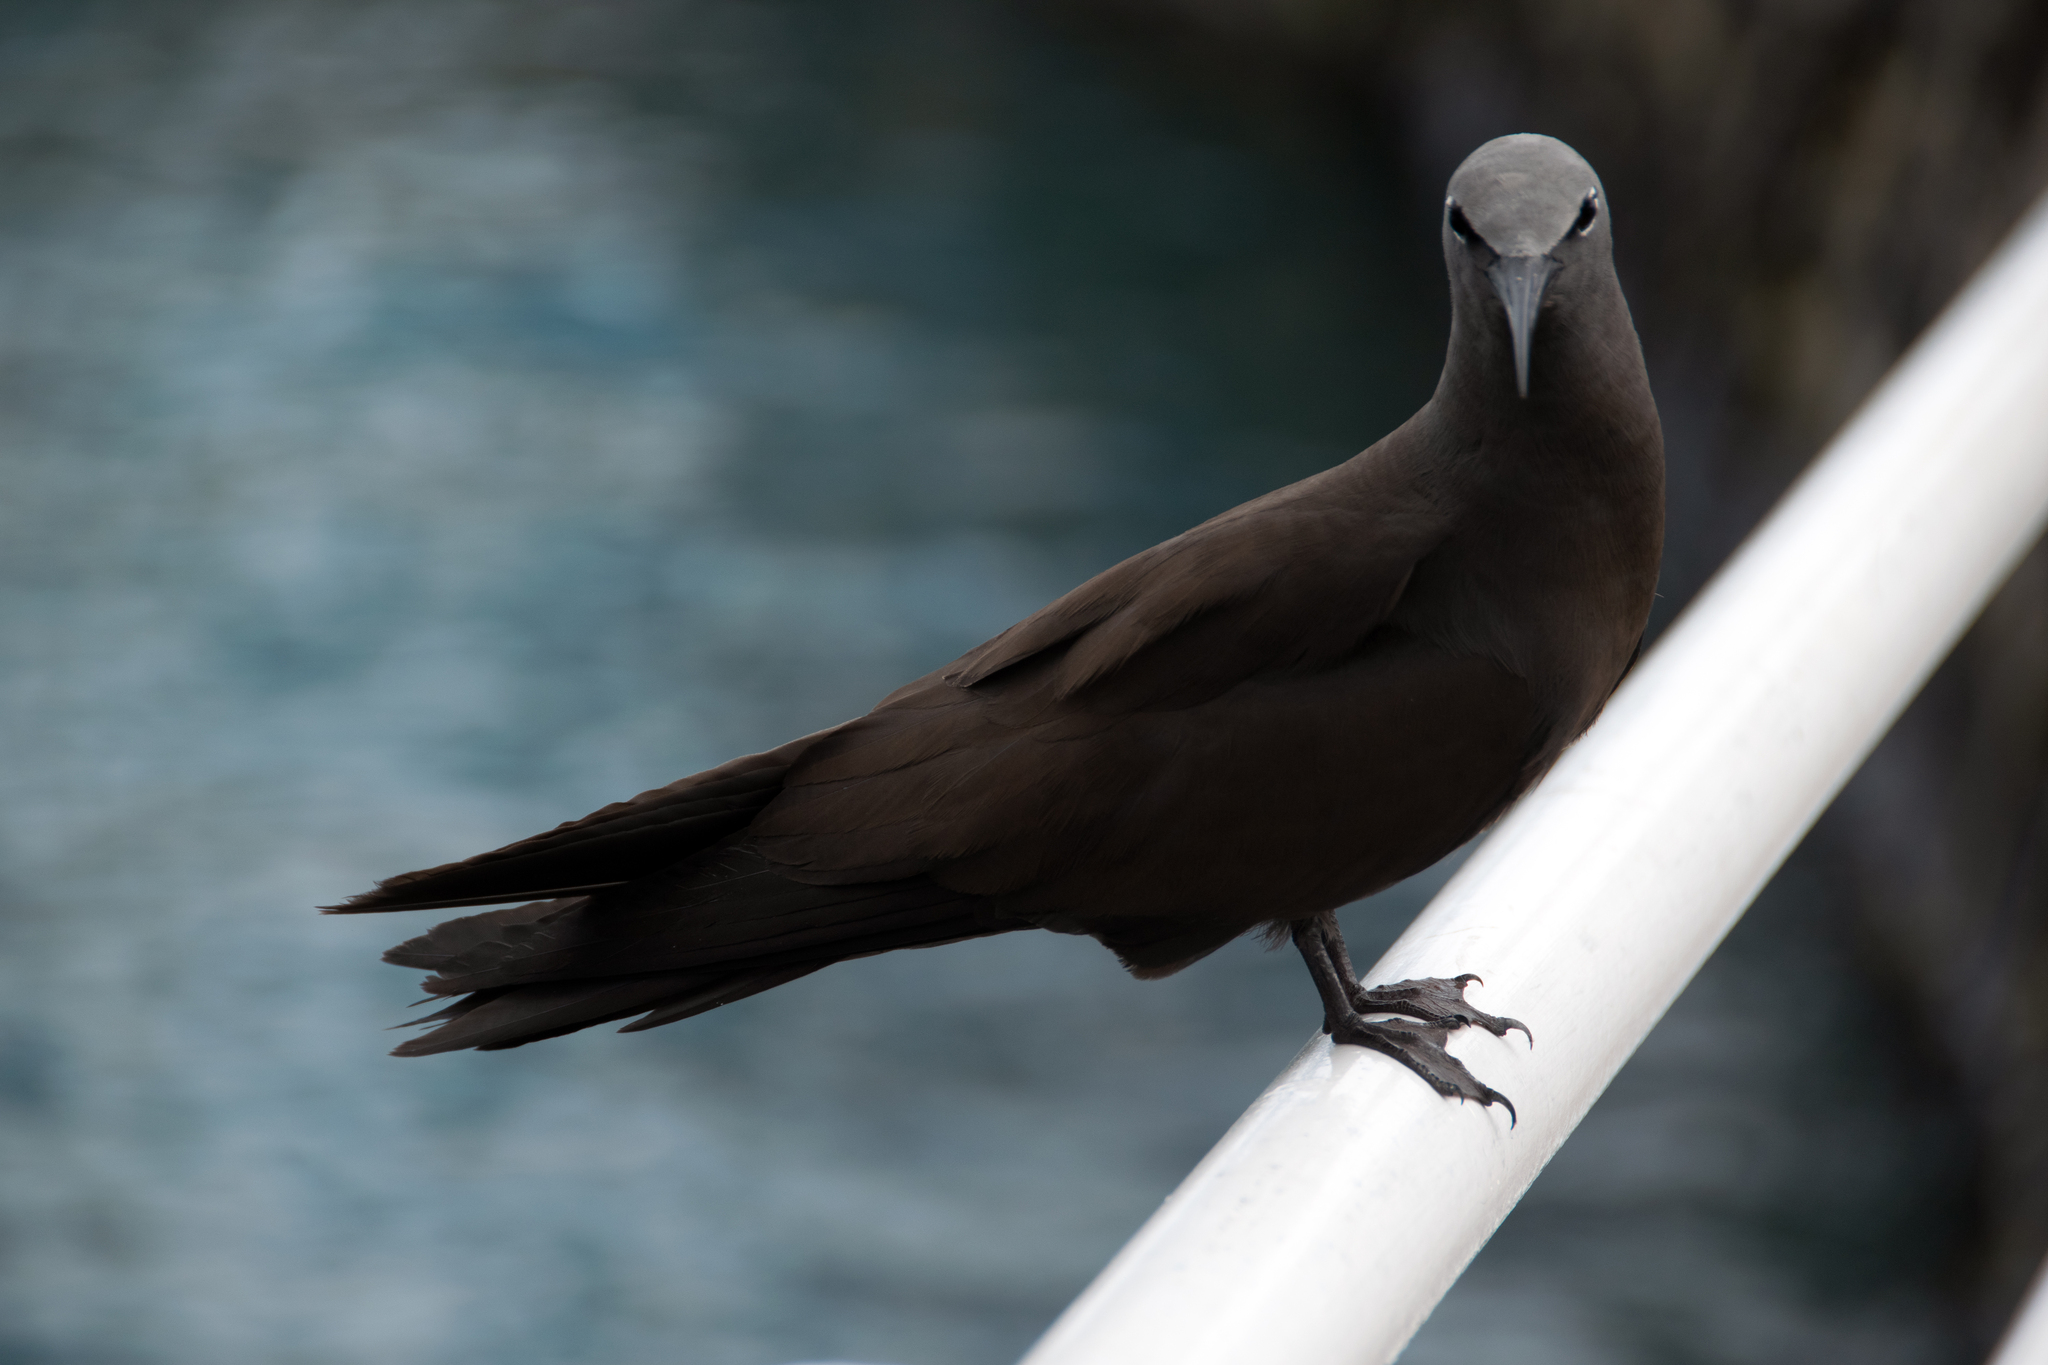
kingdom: Animalia
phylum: Chordata
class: Aves
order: Charadriiformes
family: Laridae
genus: Anous
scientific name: Anous stolidus
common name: Brown noddy
